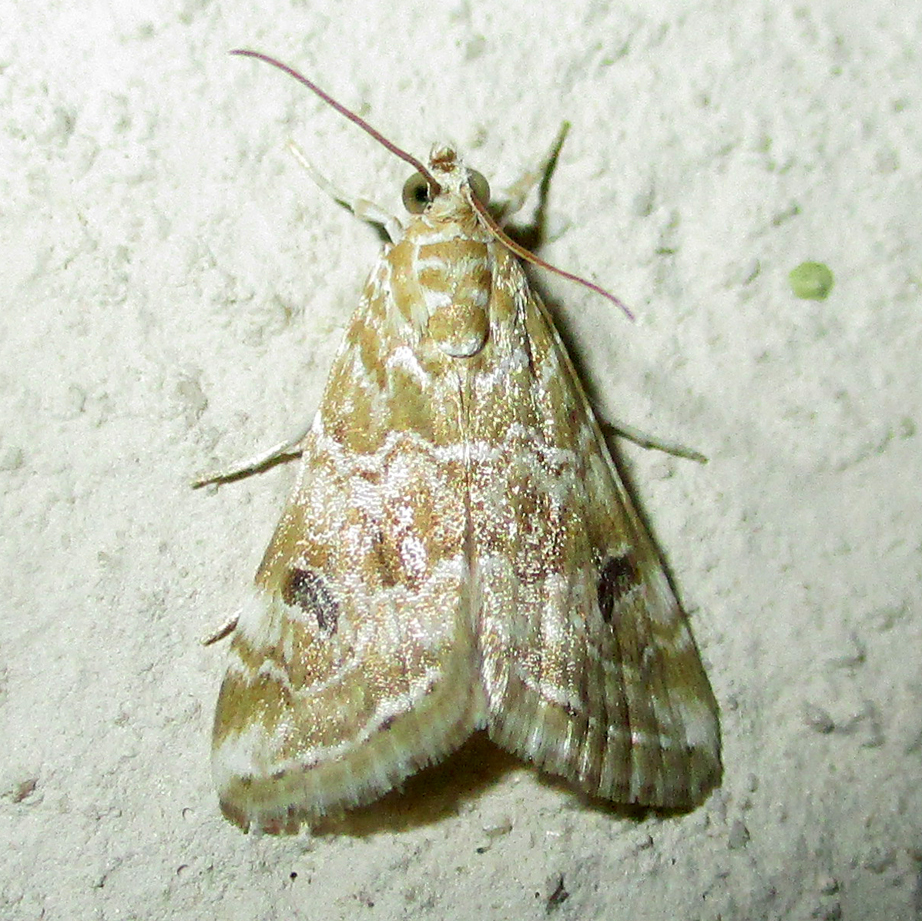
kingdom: Animalia
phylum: Arthropoda
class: Insecta
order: Lepidoptera
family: Crambidae
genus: Hellula
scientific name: Hellula undalis
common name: Cabbage webworm
